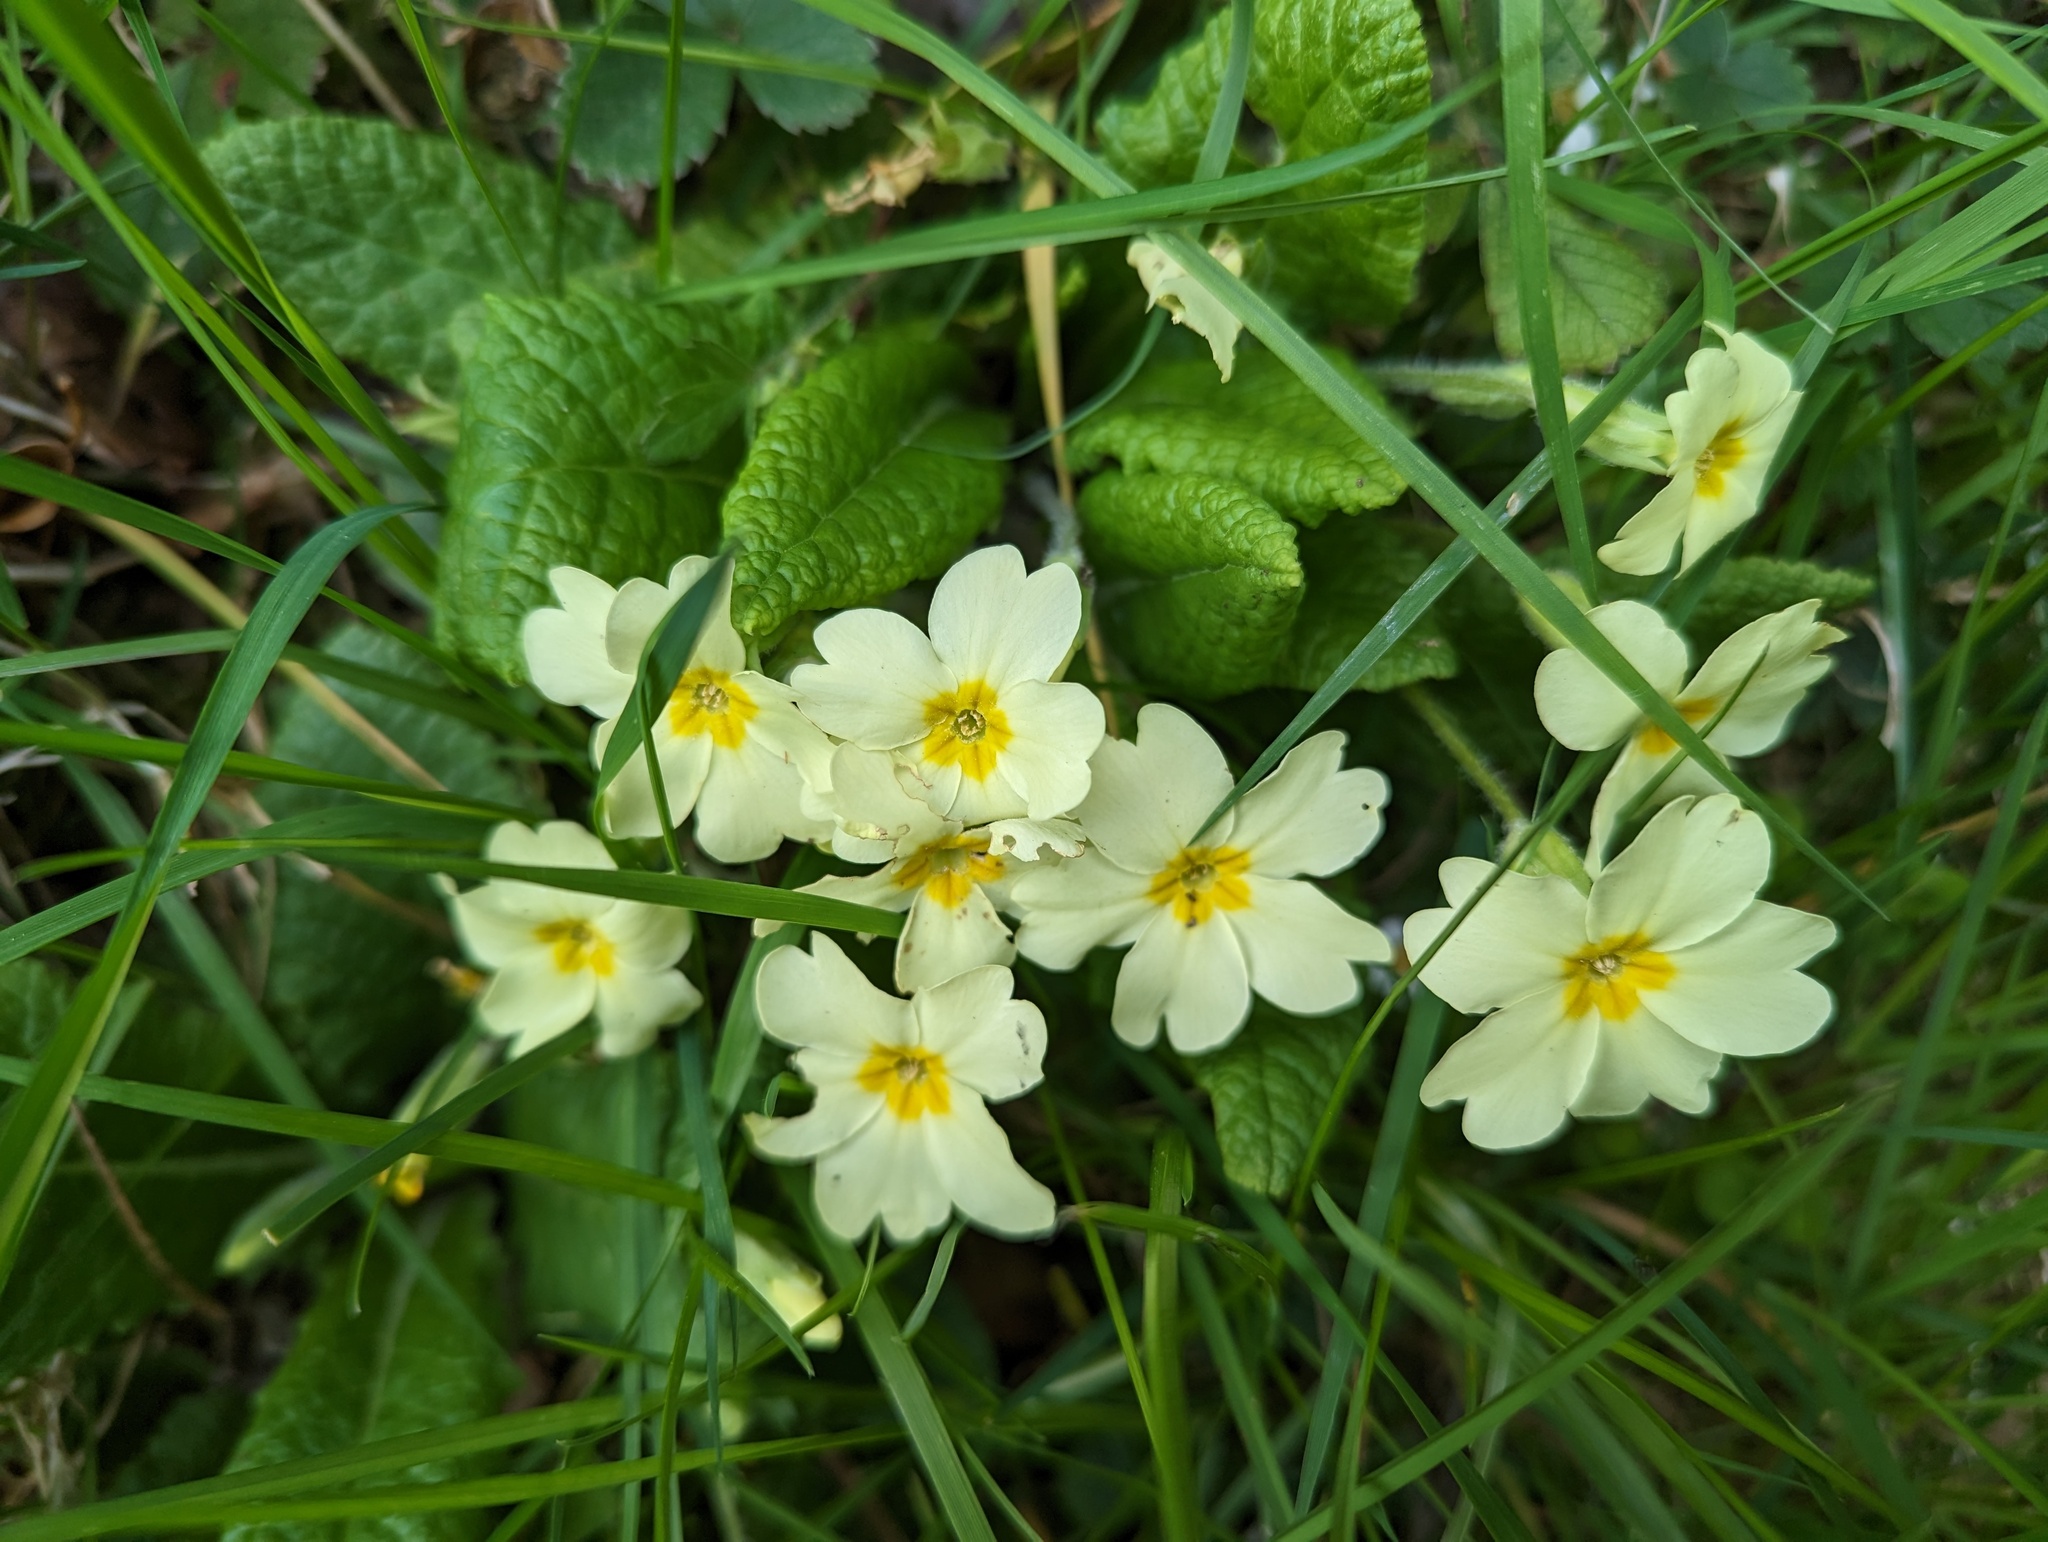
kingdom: Plantae
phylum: Tracheophyta
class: Magnoliopsida
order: Ericales
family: Primulaceae
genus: Primula
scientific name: Primula vulgaris
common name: Primrose
